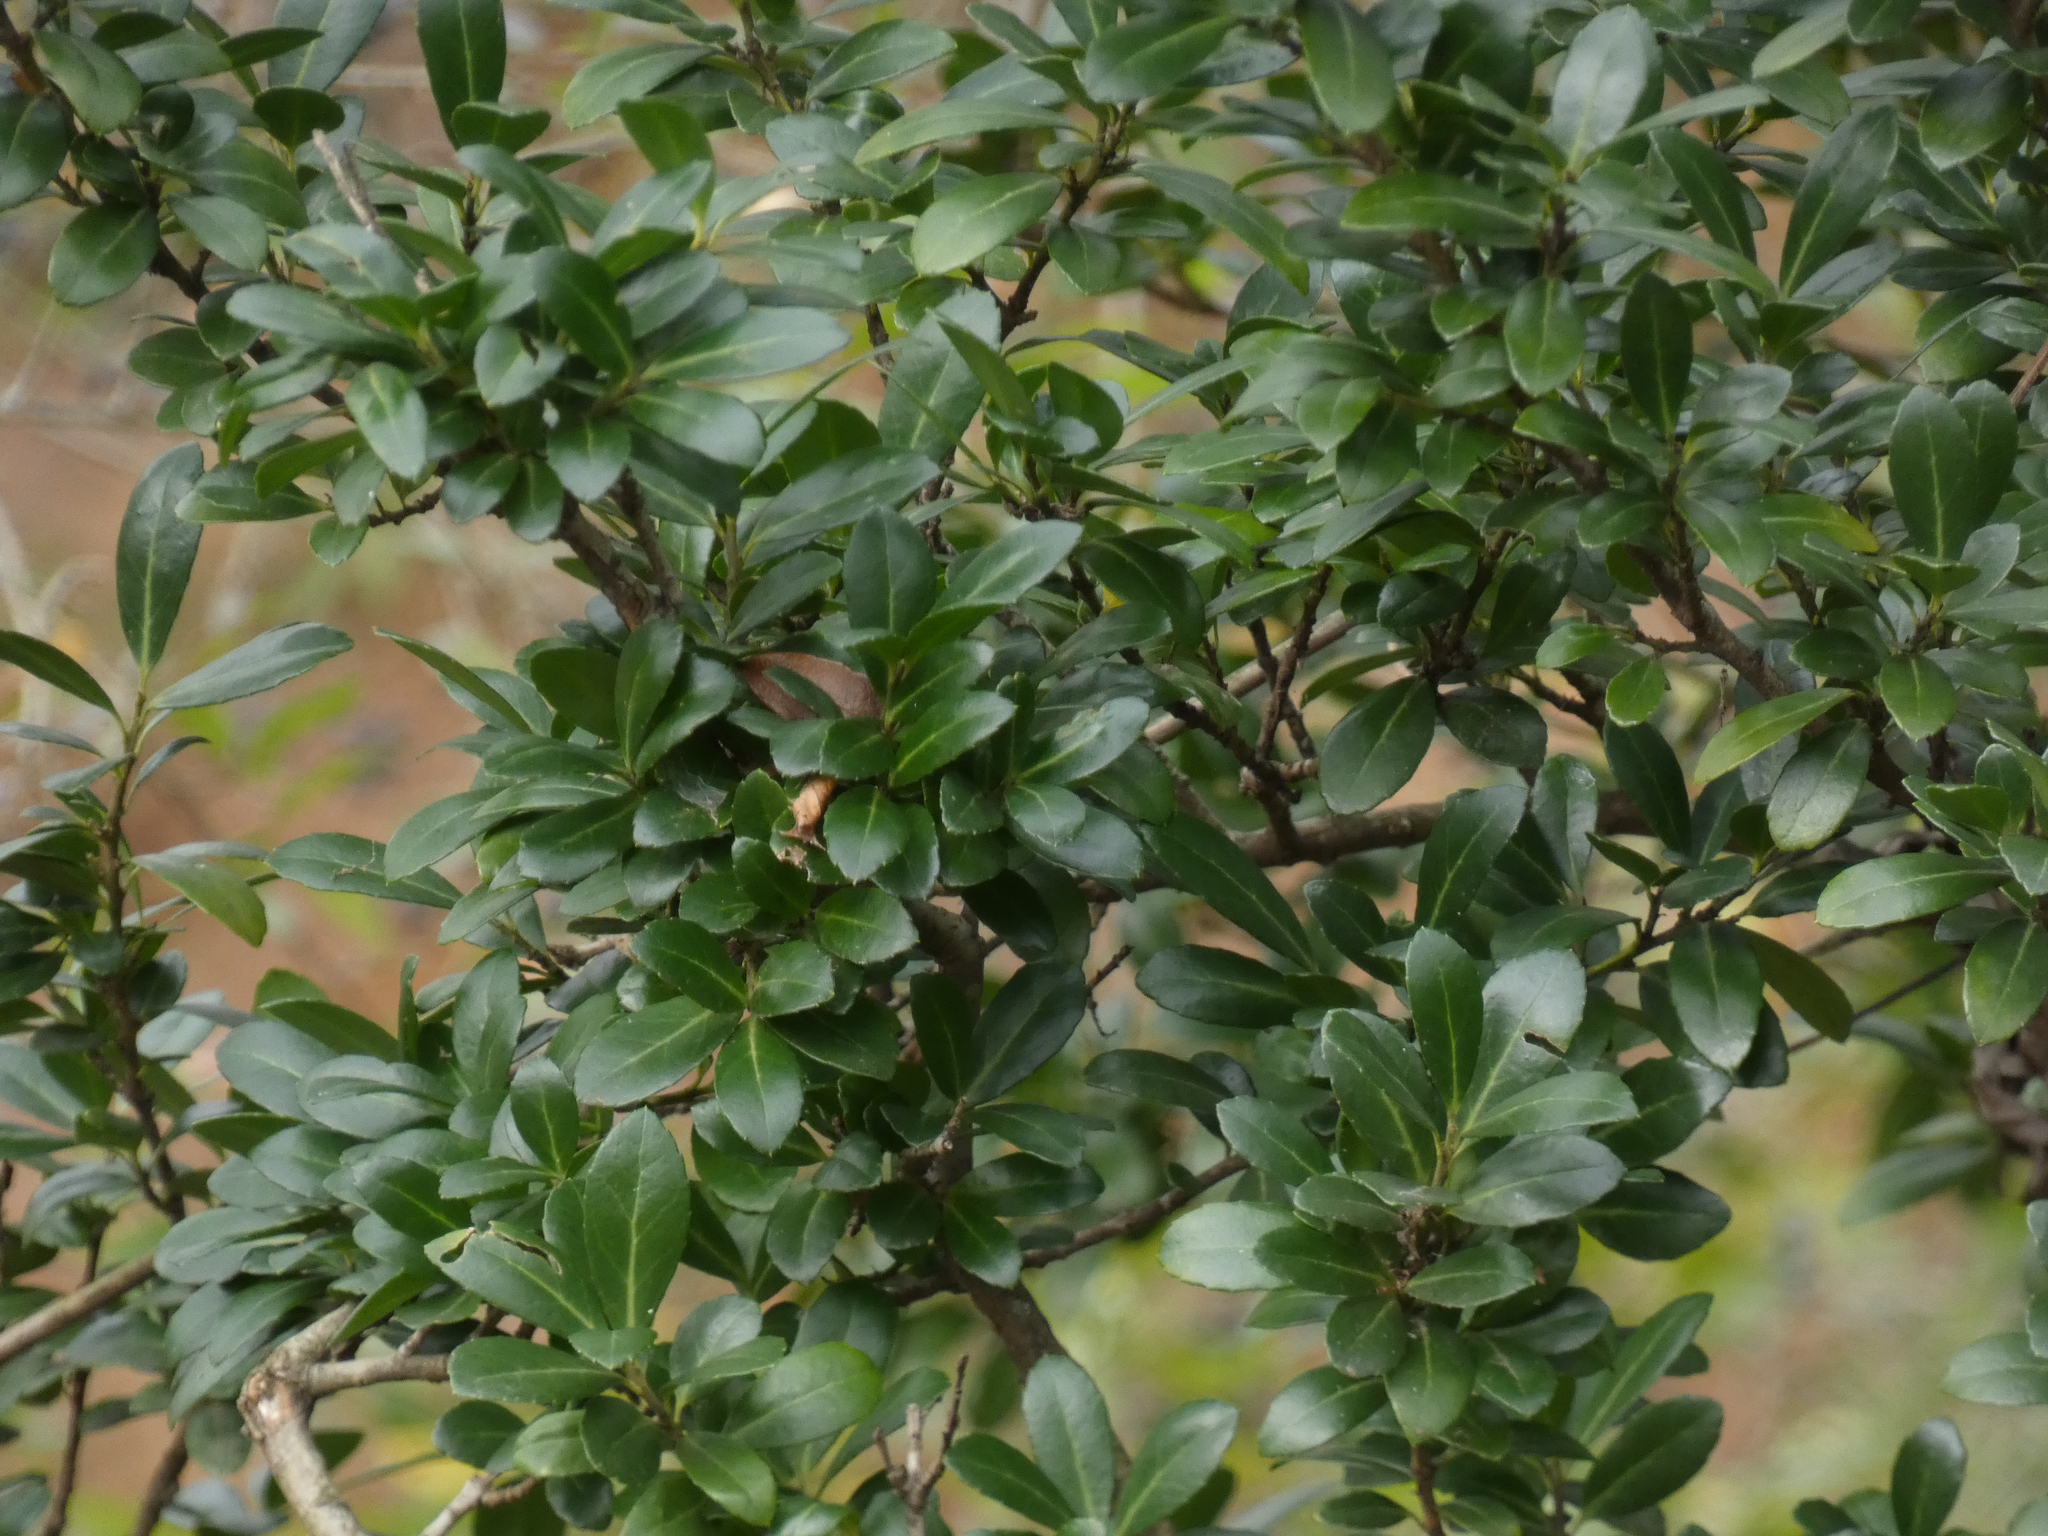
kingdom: Plantae
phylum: Tracheophyta
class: Magnoliopsida
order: Aquifoliales
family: Aquifoliaceae
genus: Ilex
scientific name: Ilex crenata
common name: Japanese holly
